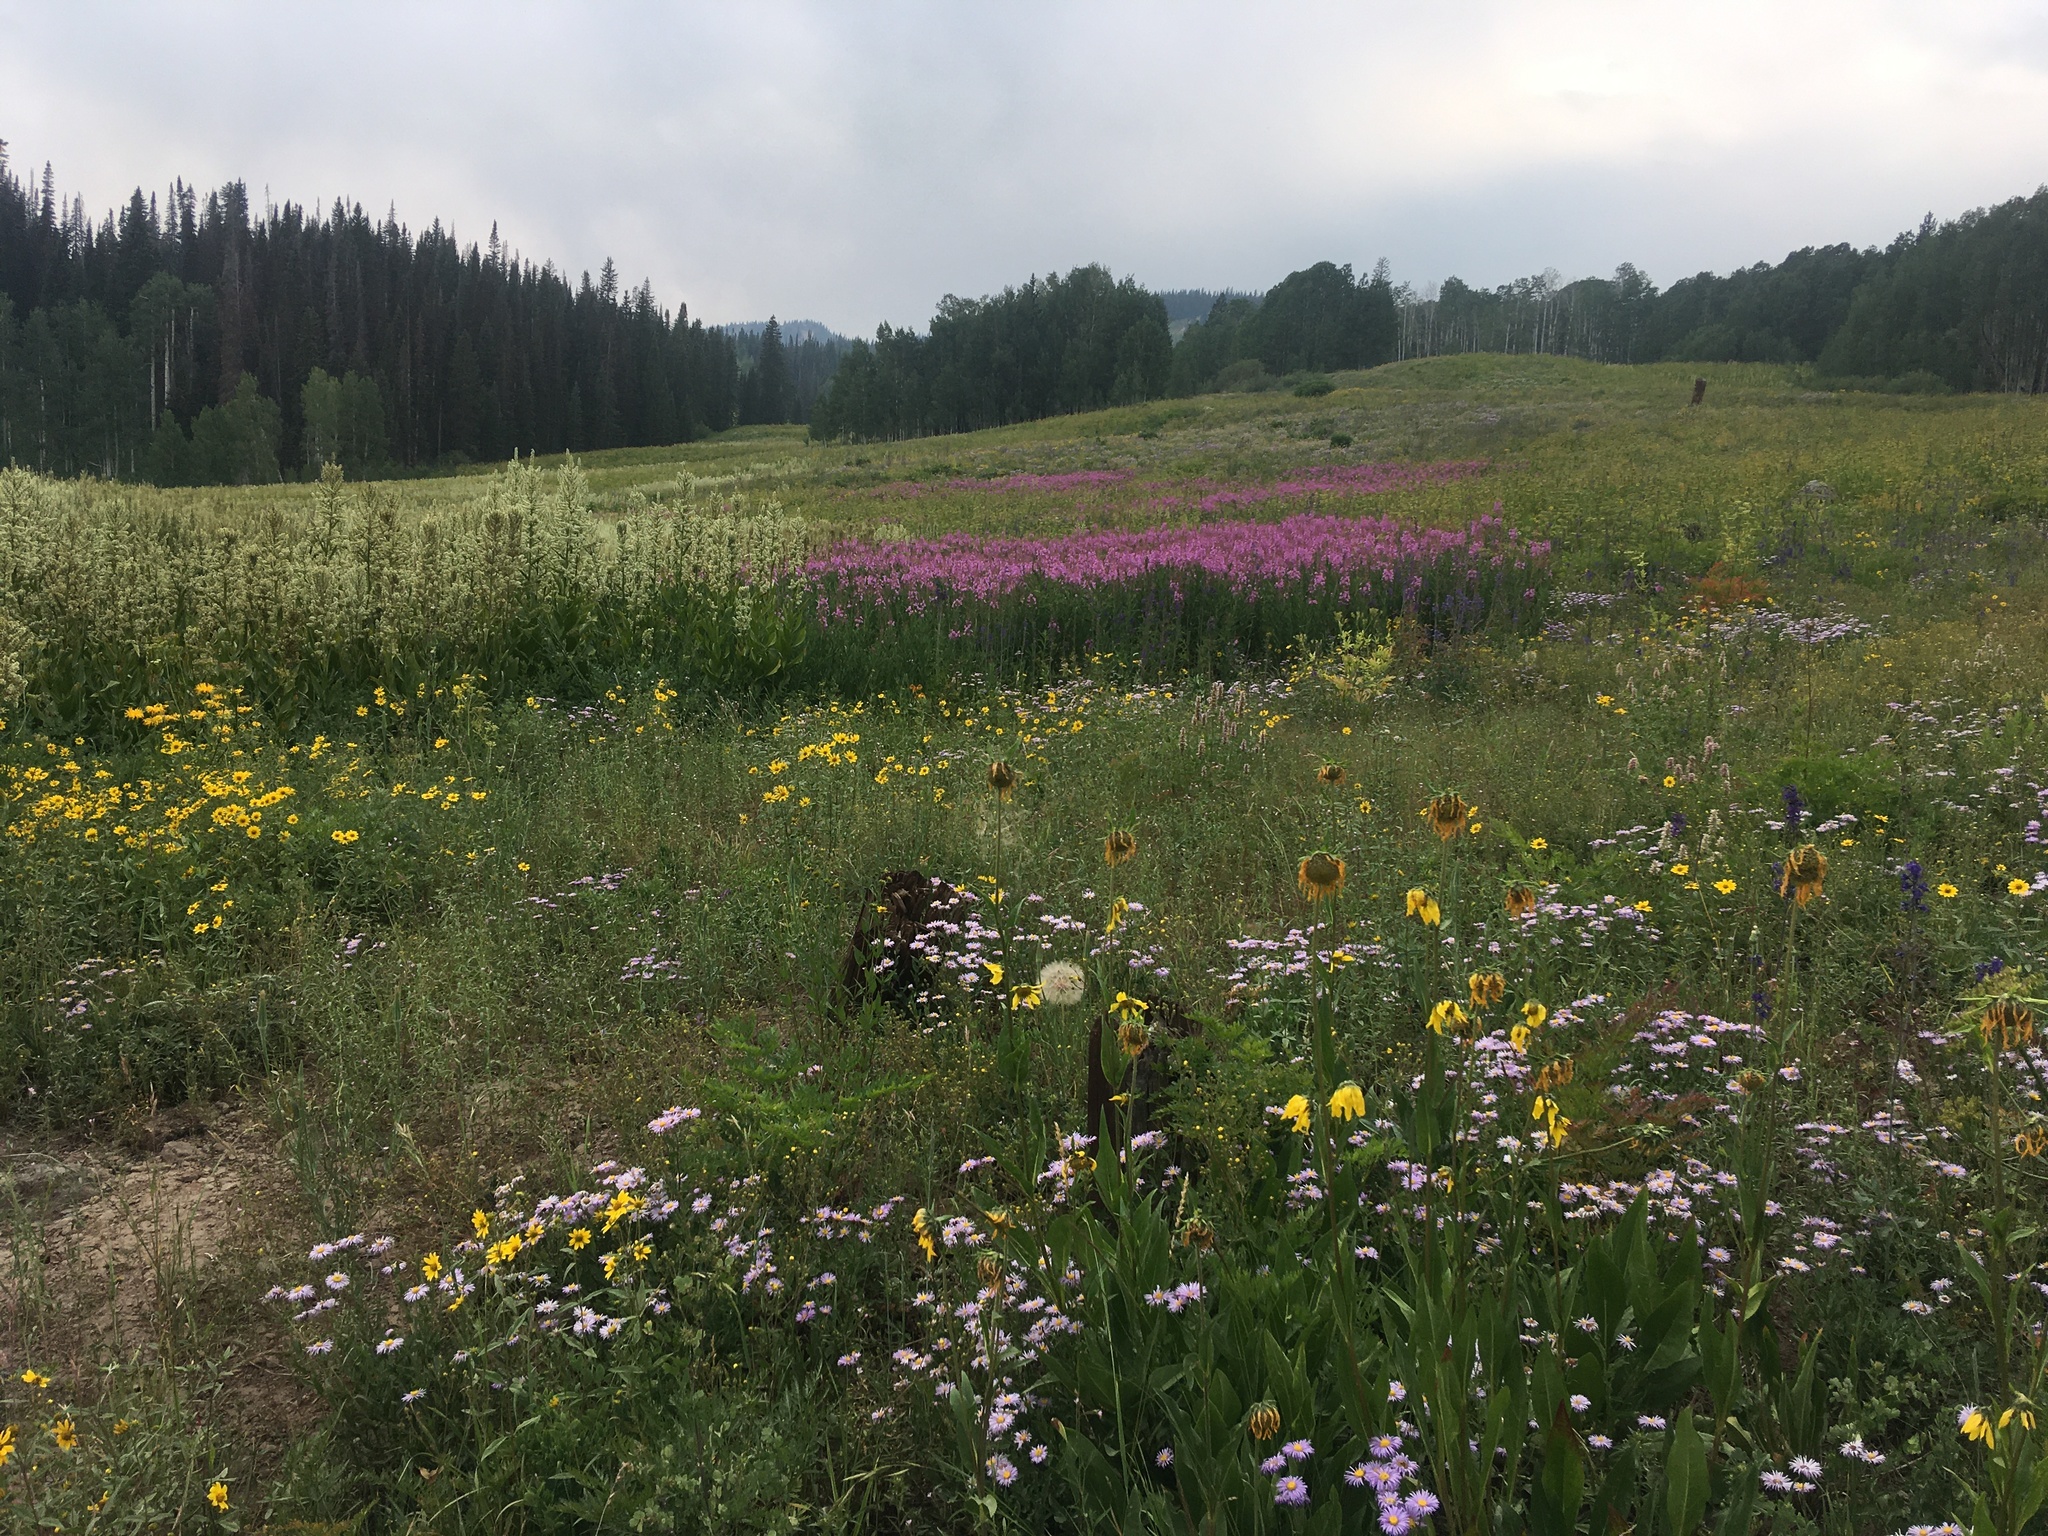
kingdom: Plantae
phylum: Tracheophyta
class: Magnoliopsida
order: Myrtales
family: Onagraceae
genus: Chamaenerion
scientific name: Chamaenerion angustifolium
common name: Fireweed
